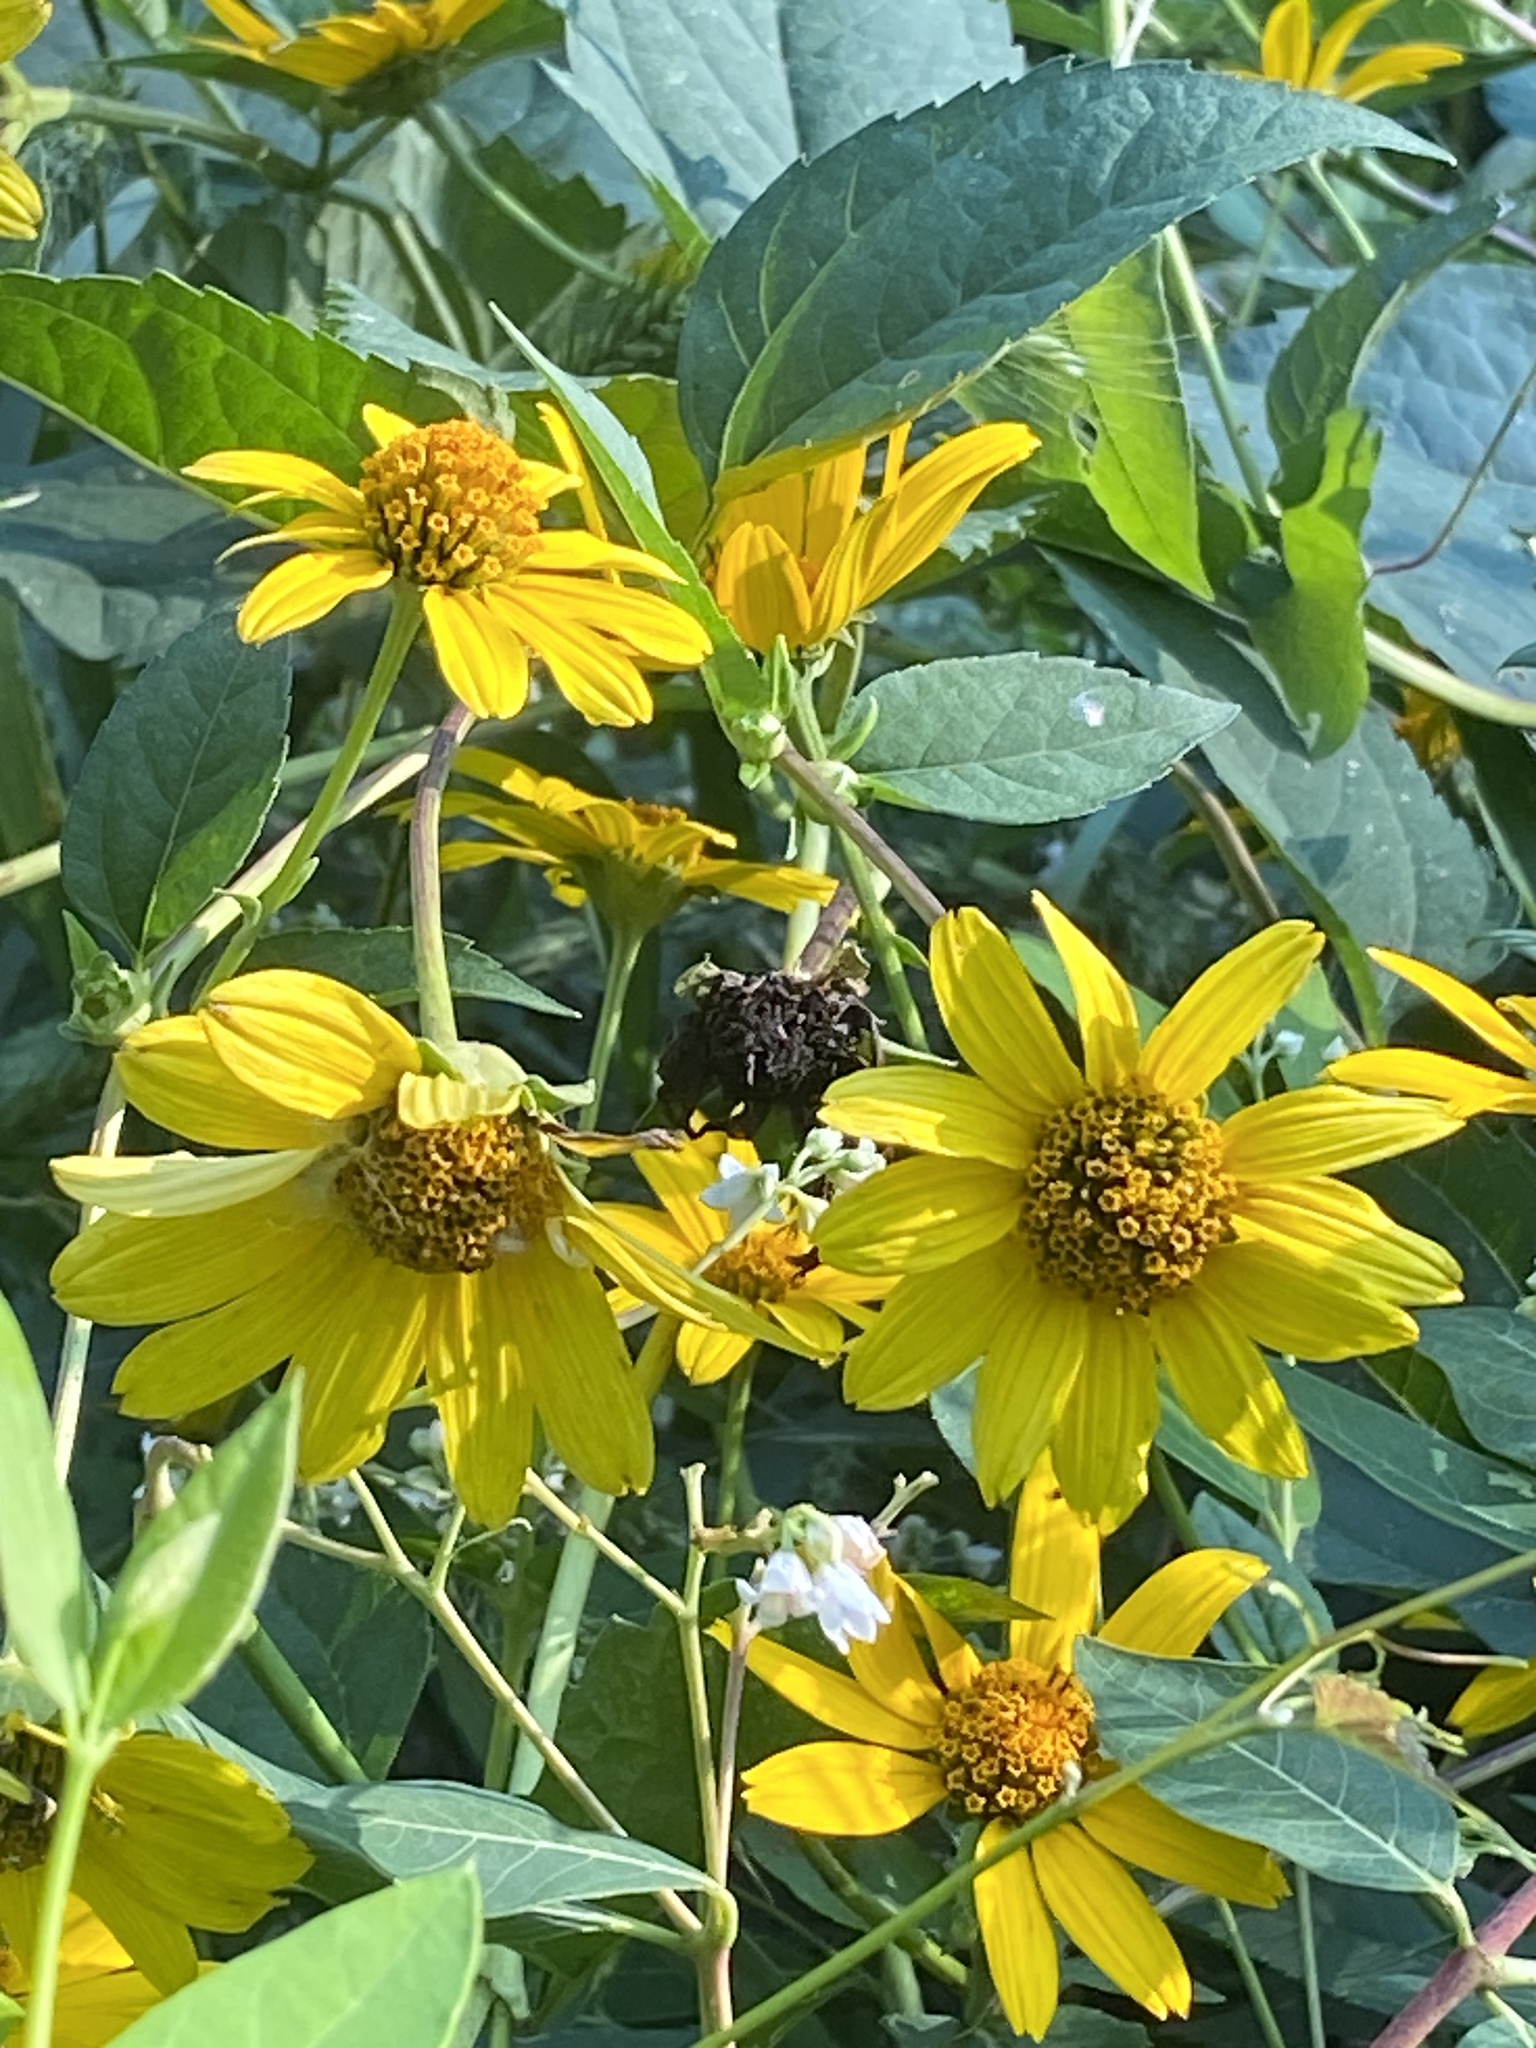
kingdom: Plantae
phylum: Tracheophyta
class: Magnoliopsida
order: Asterales
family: Asteraceae
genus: Heliopsis
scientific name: Heliopsis helianthoides
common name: False sunflower
